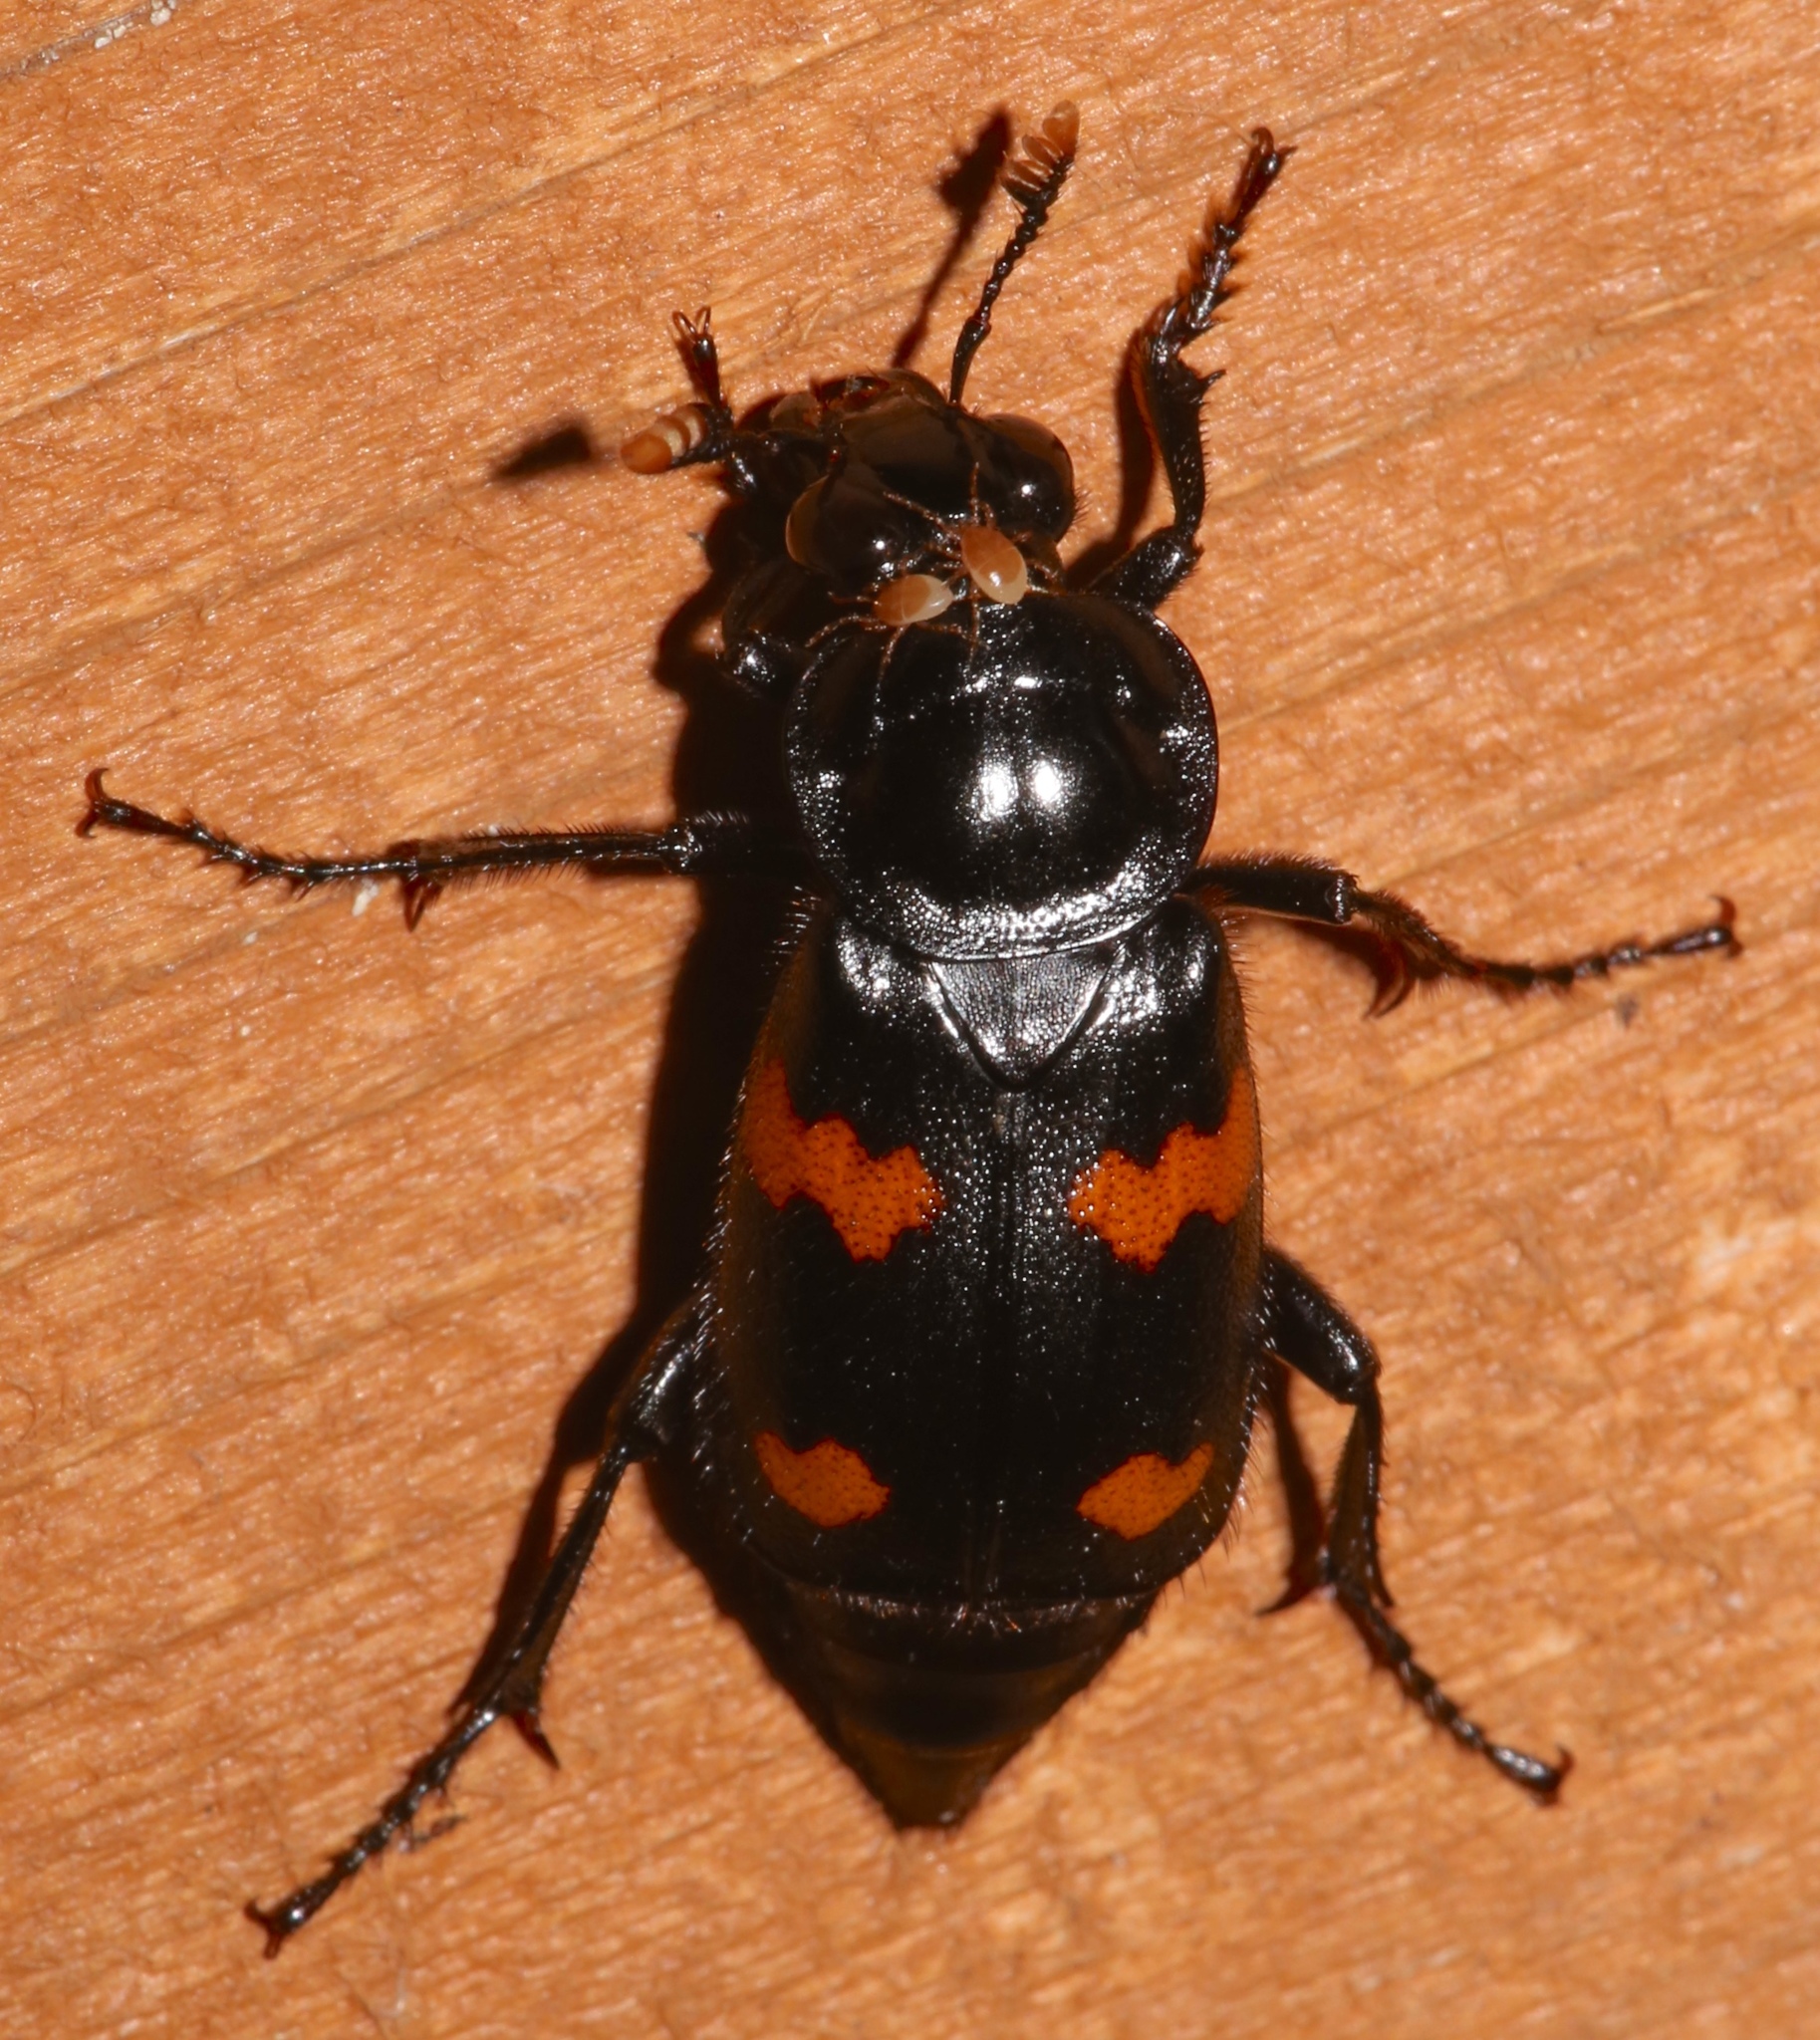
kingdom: Animalia
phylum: Arthropoda
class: Insecta
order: Coleoptera
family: Staphylinidae
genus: Nicrophorus
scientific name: Nicrophorus orbicollis
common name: Roundneck sexton beetle
